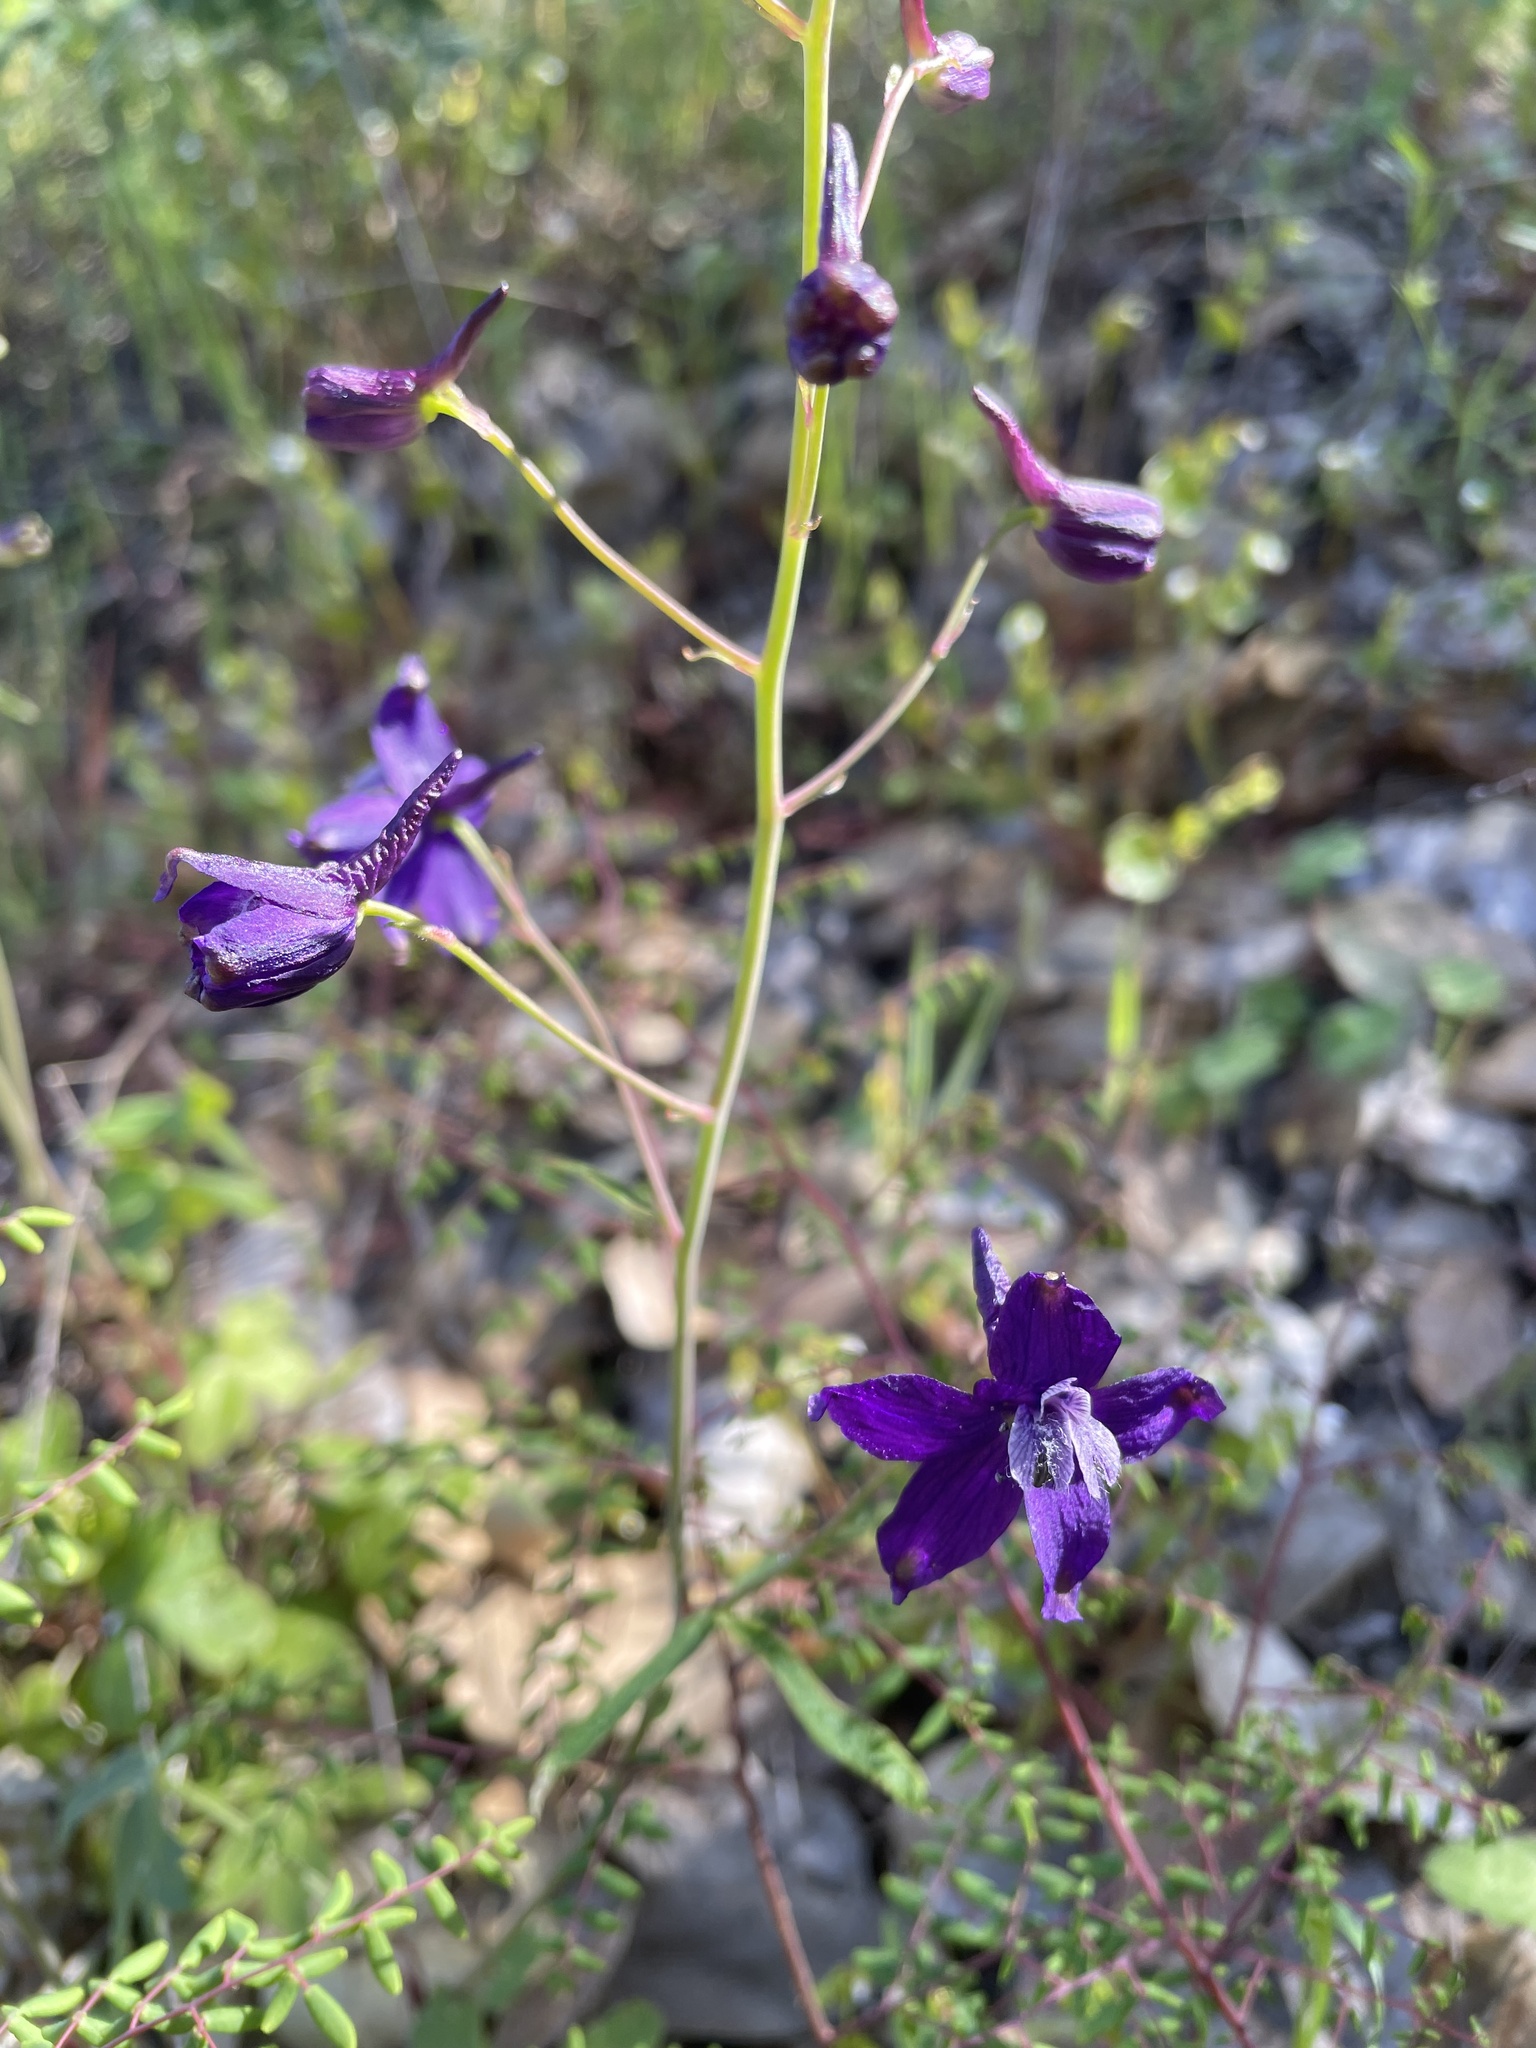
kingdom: Plantae
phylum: Tracheophyta
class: Magnoliopsida
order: Ranunculales
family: Ranunculaceae
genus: Delphinium
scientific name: Delphinium patens
